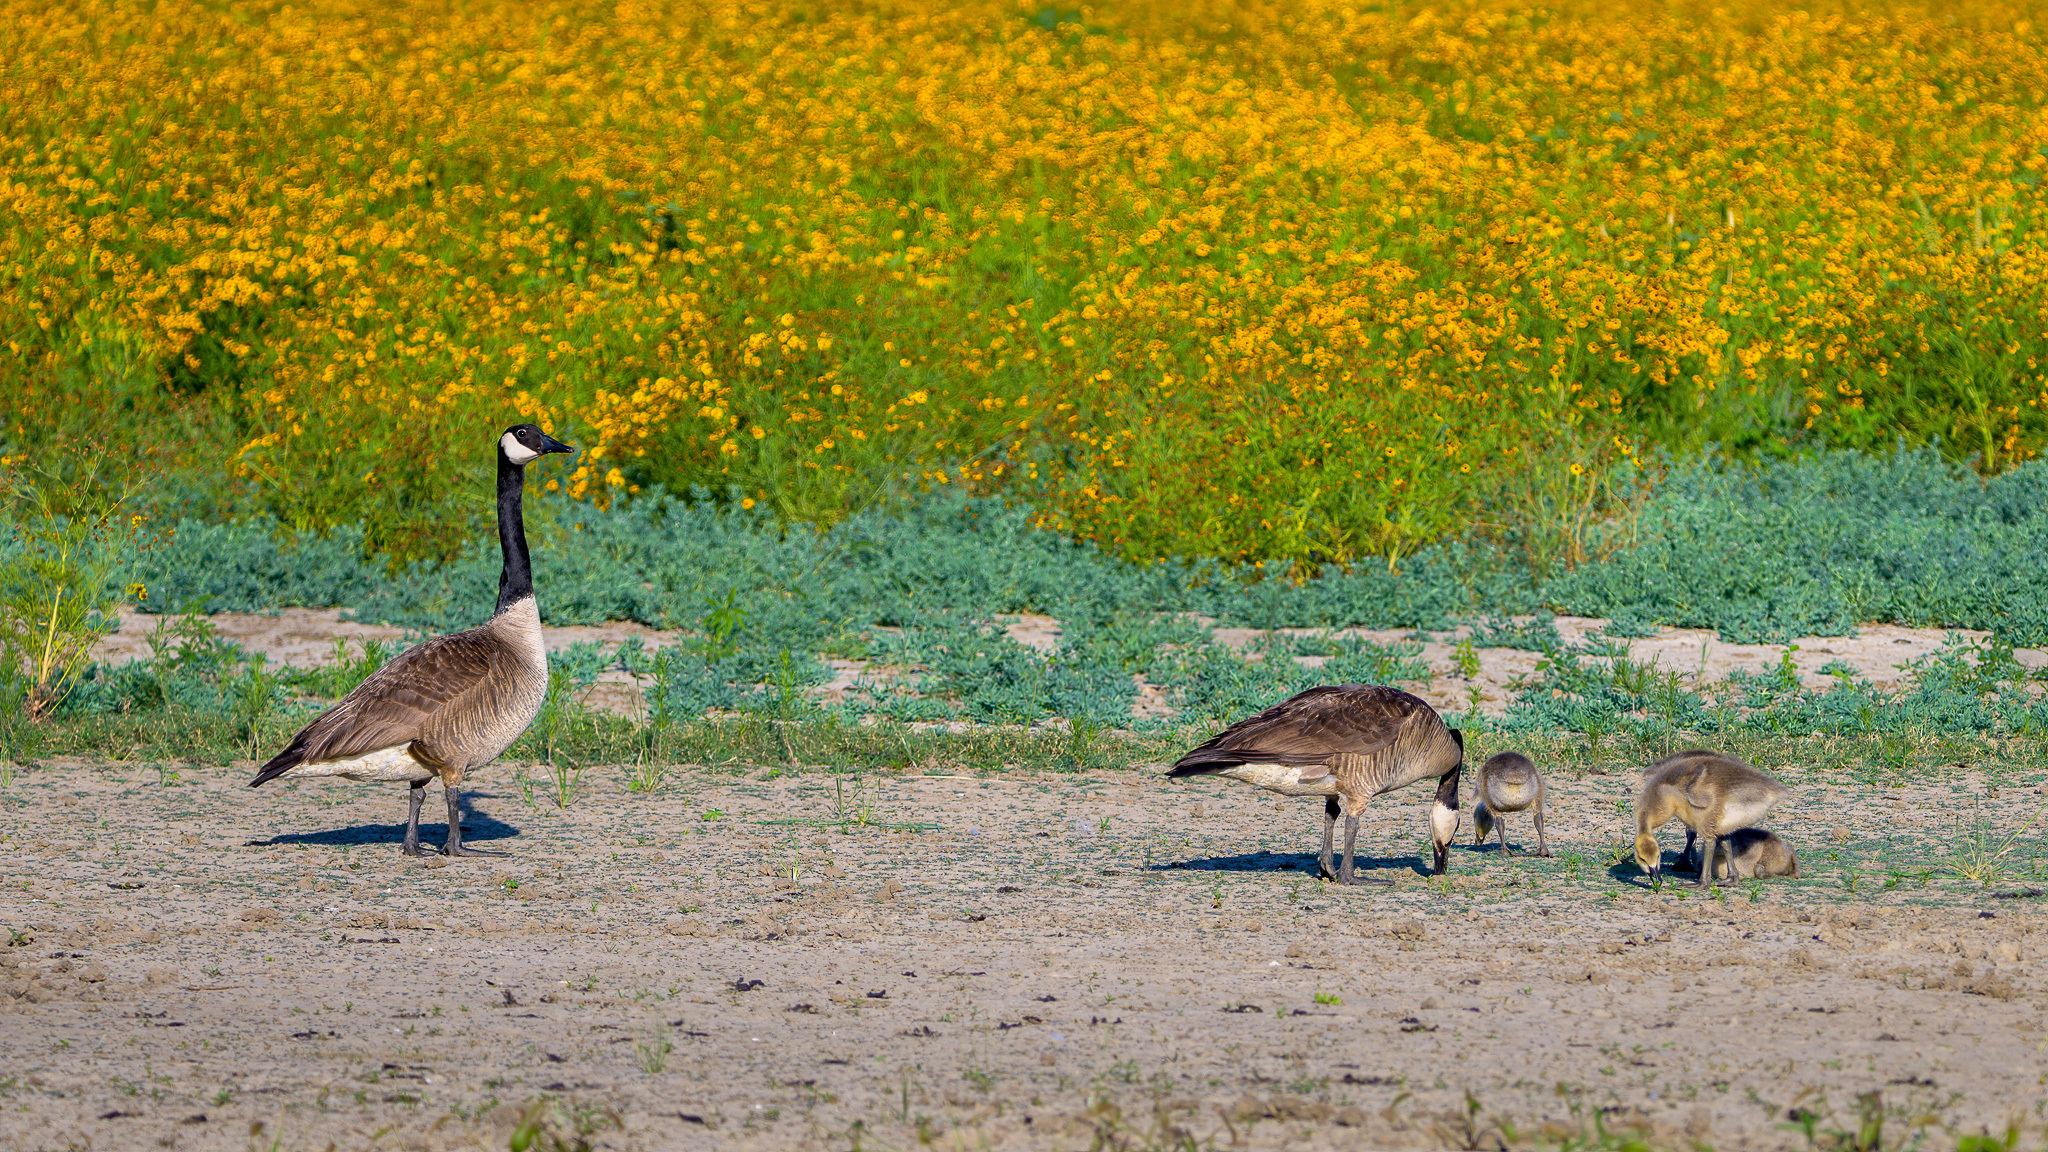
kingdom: Animalia
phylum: Chordata
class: Aves
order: Anseriformes
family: Anatidae
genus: Branta
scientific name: Branta canadensis
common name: Canada goose
